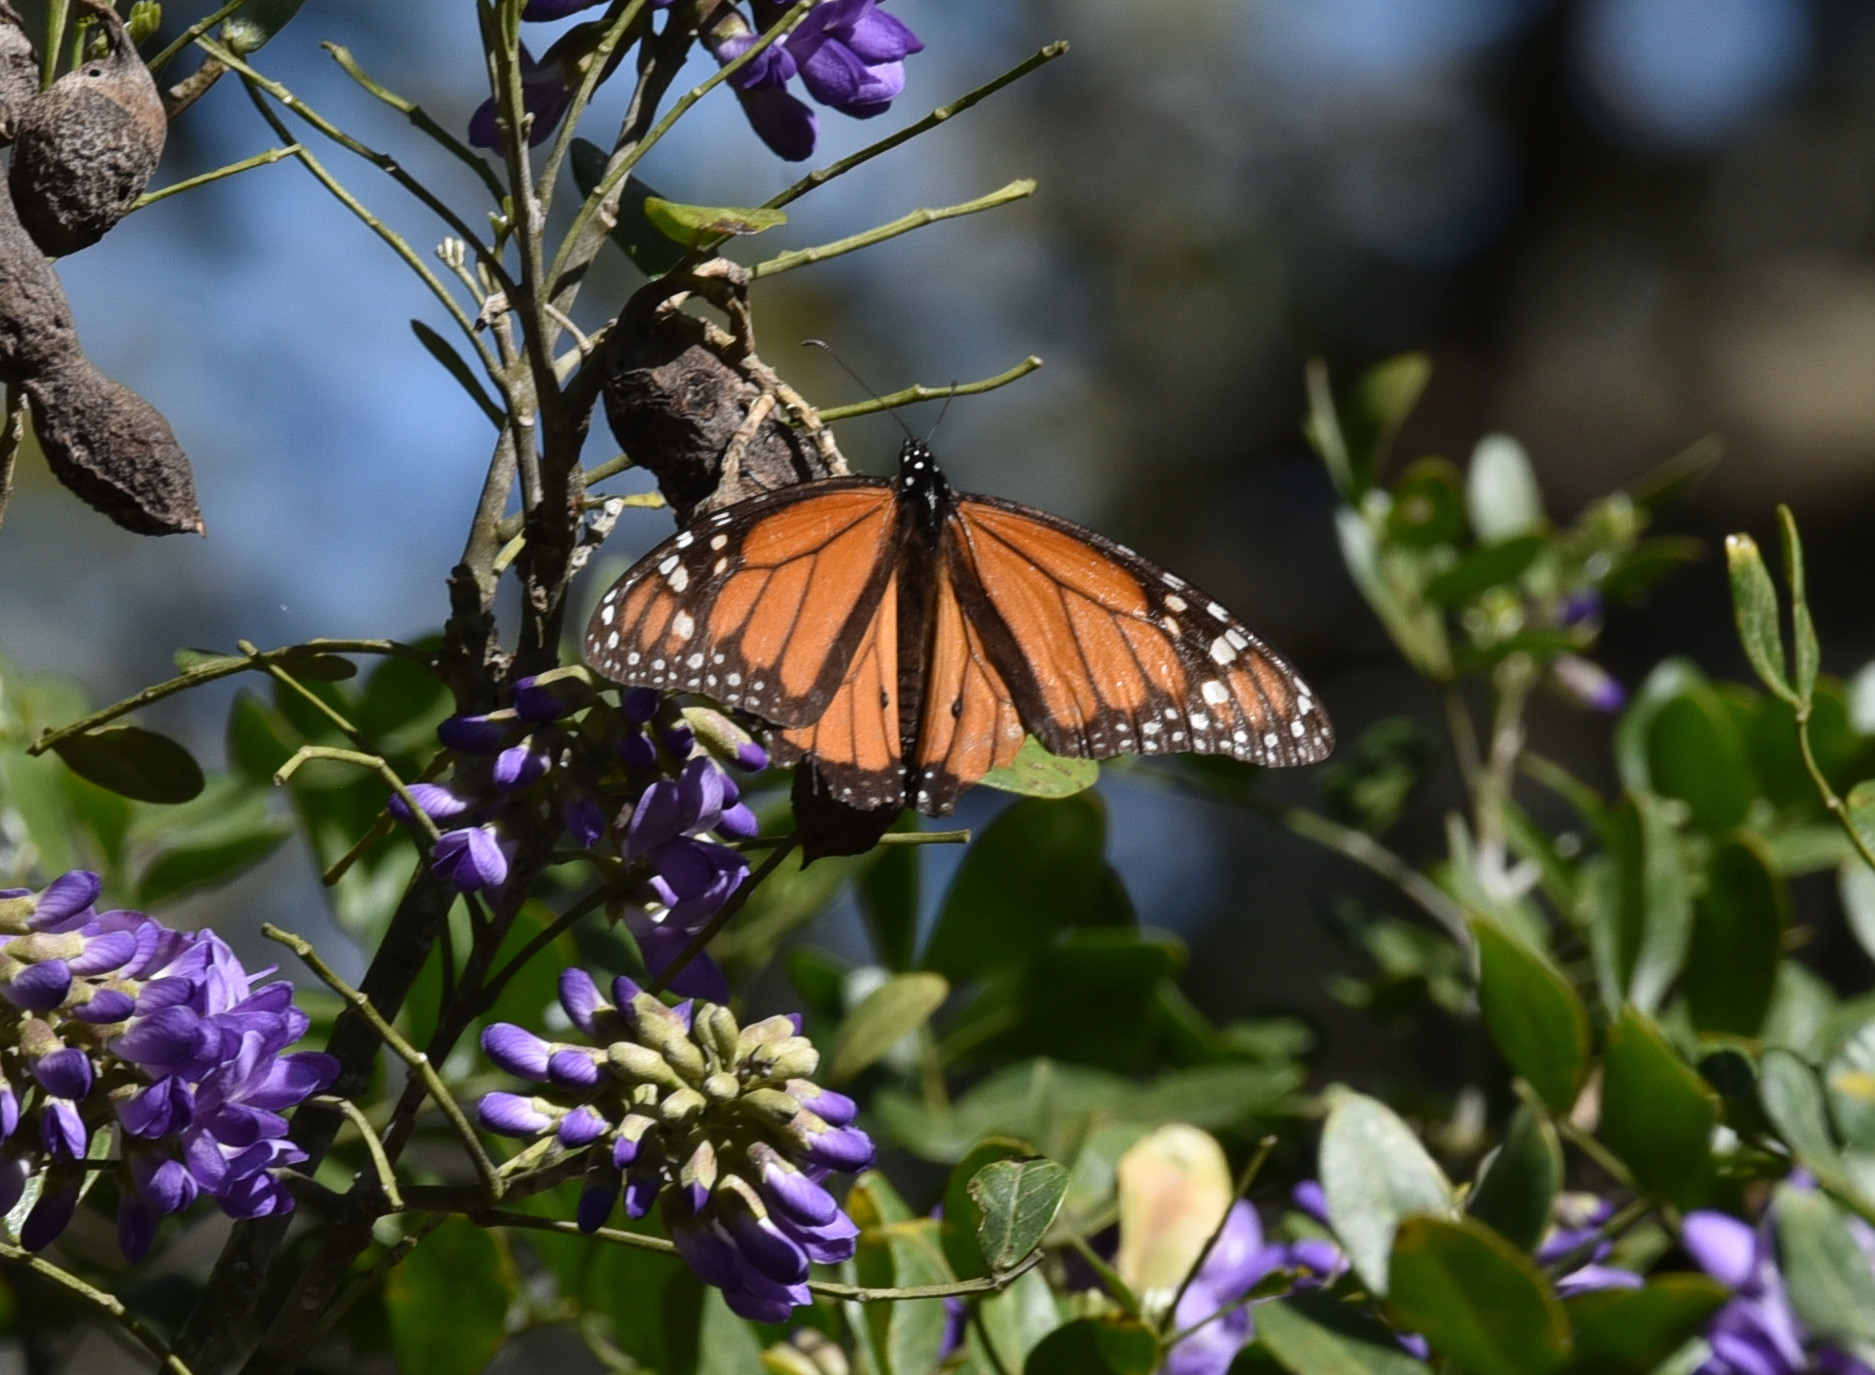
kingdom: Animalia
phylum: Arthropoda
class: Insecta
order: Lepidoptera
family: Nymphalidae
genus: Danaus
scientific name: Danaus plexippus
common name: Monarch
